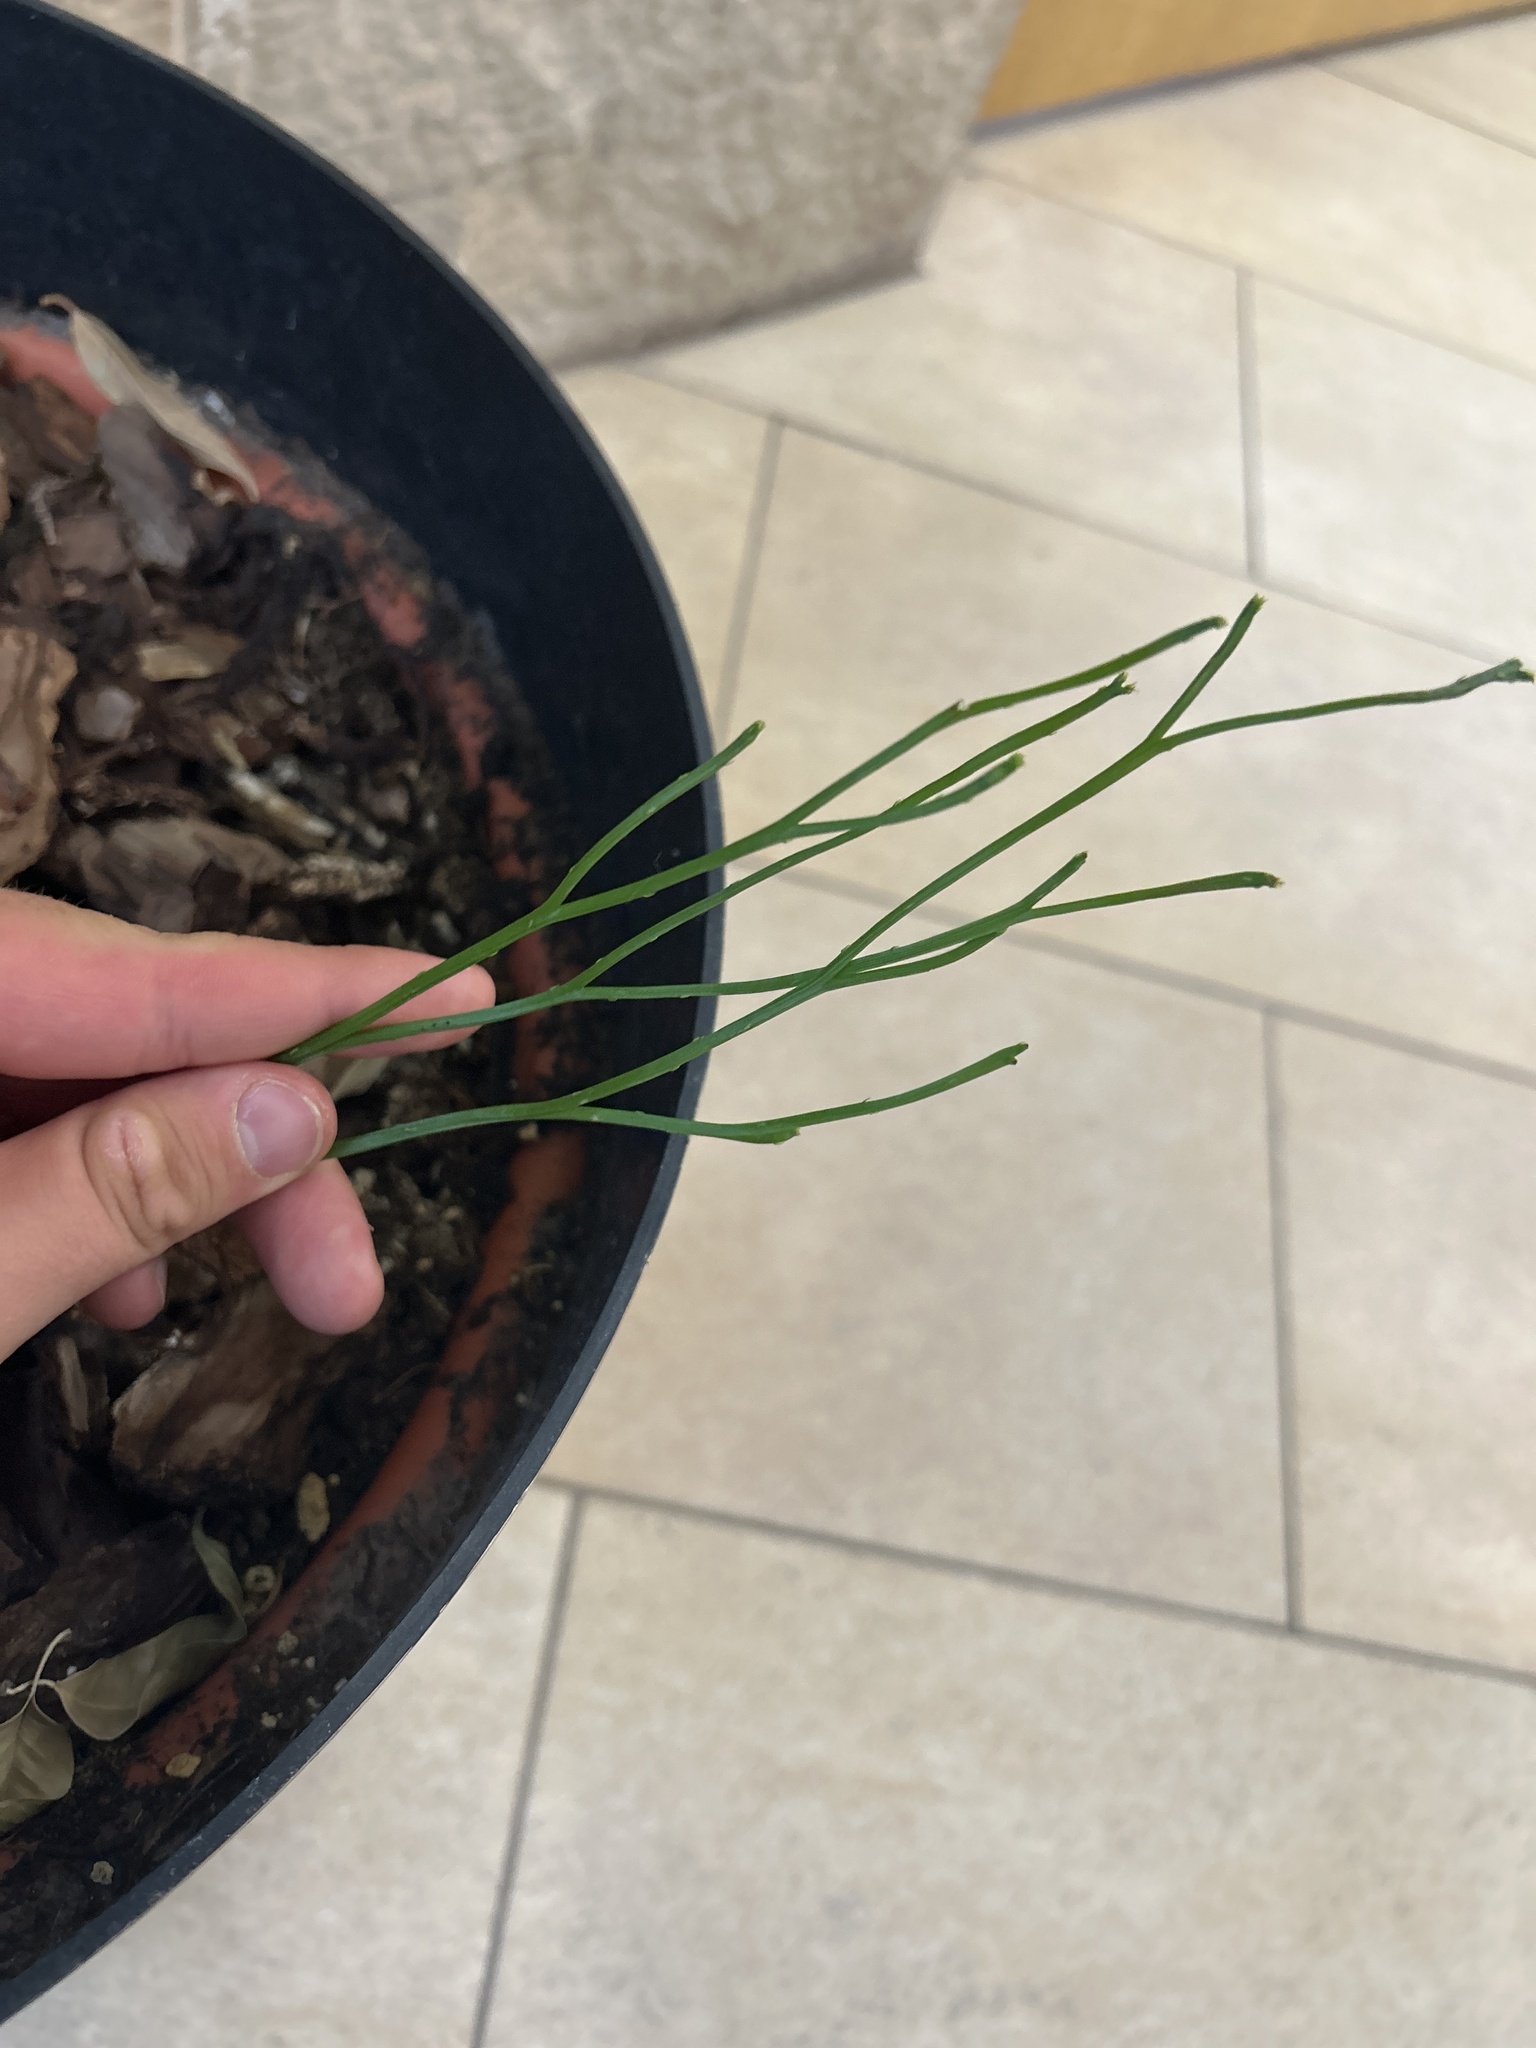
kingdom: Plantae
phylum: Tracheophyta
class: Polypodiopsida
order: Psilotales
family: Psilotaceae
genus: Psilotum
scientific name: Psilotum nudum
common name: Skeleton fork fern
